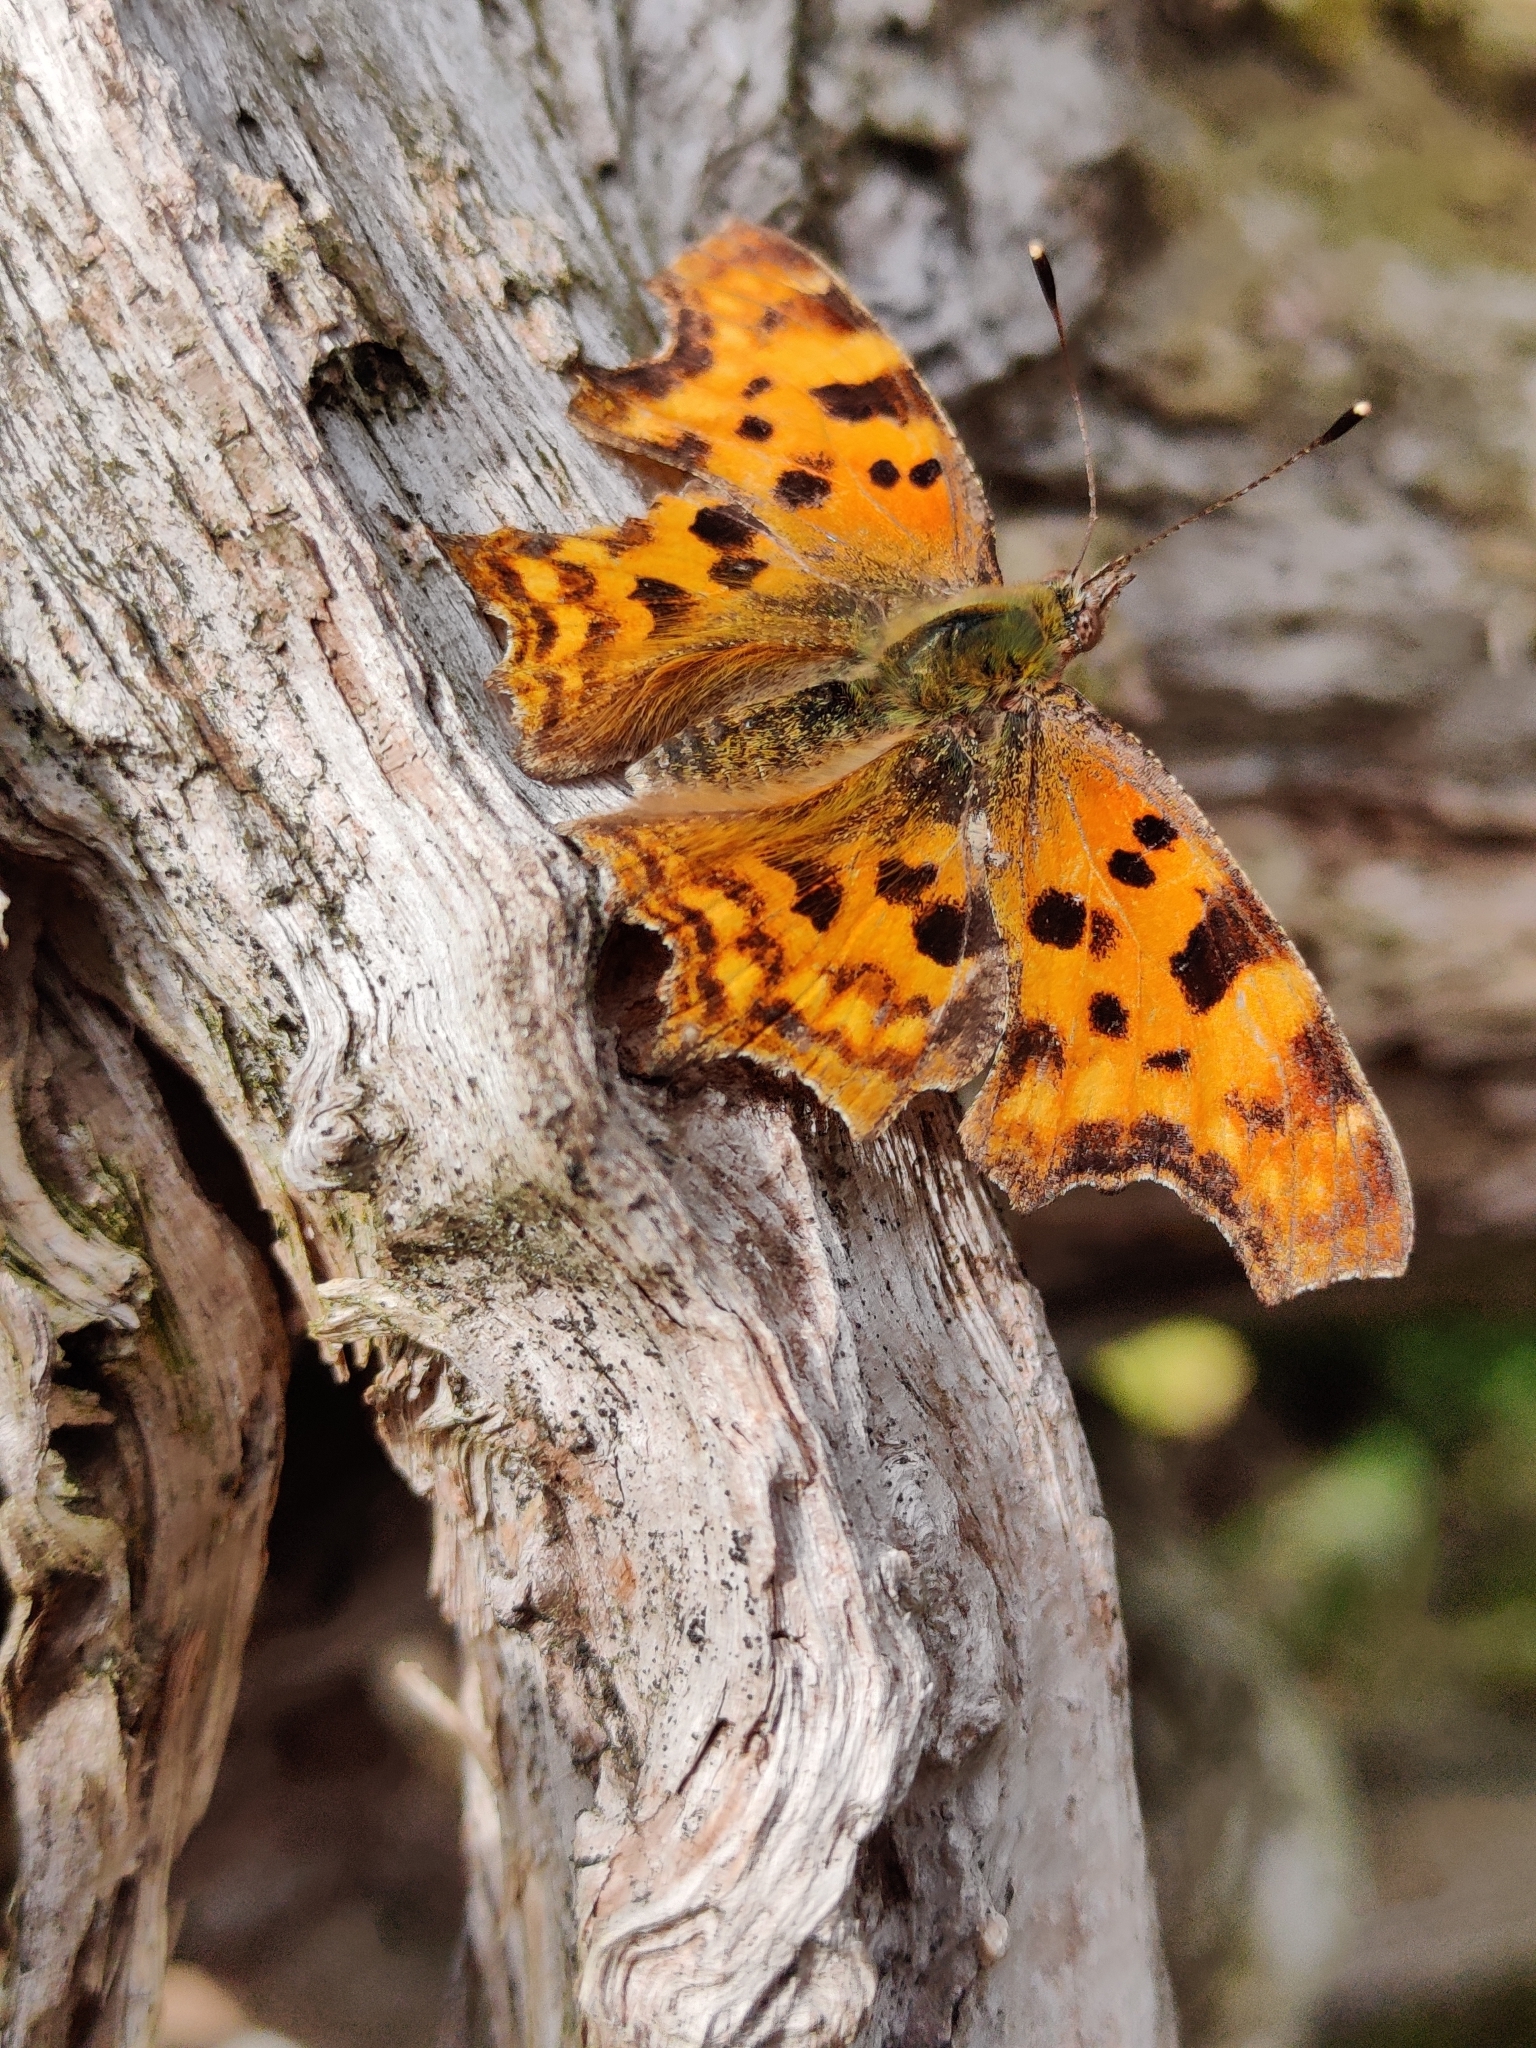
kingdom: Animalia
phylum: Arthropoda
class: Insecta
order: Lepidoptera
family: Nymphalidae
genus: Polygonia
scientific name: Polygonia c-album
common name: Comma
